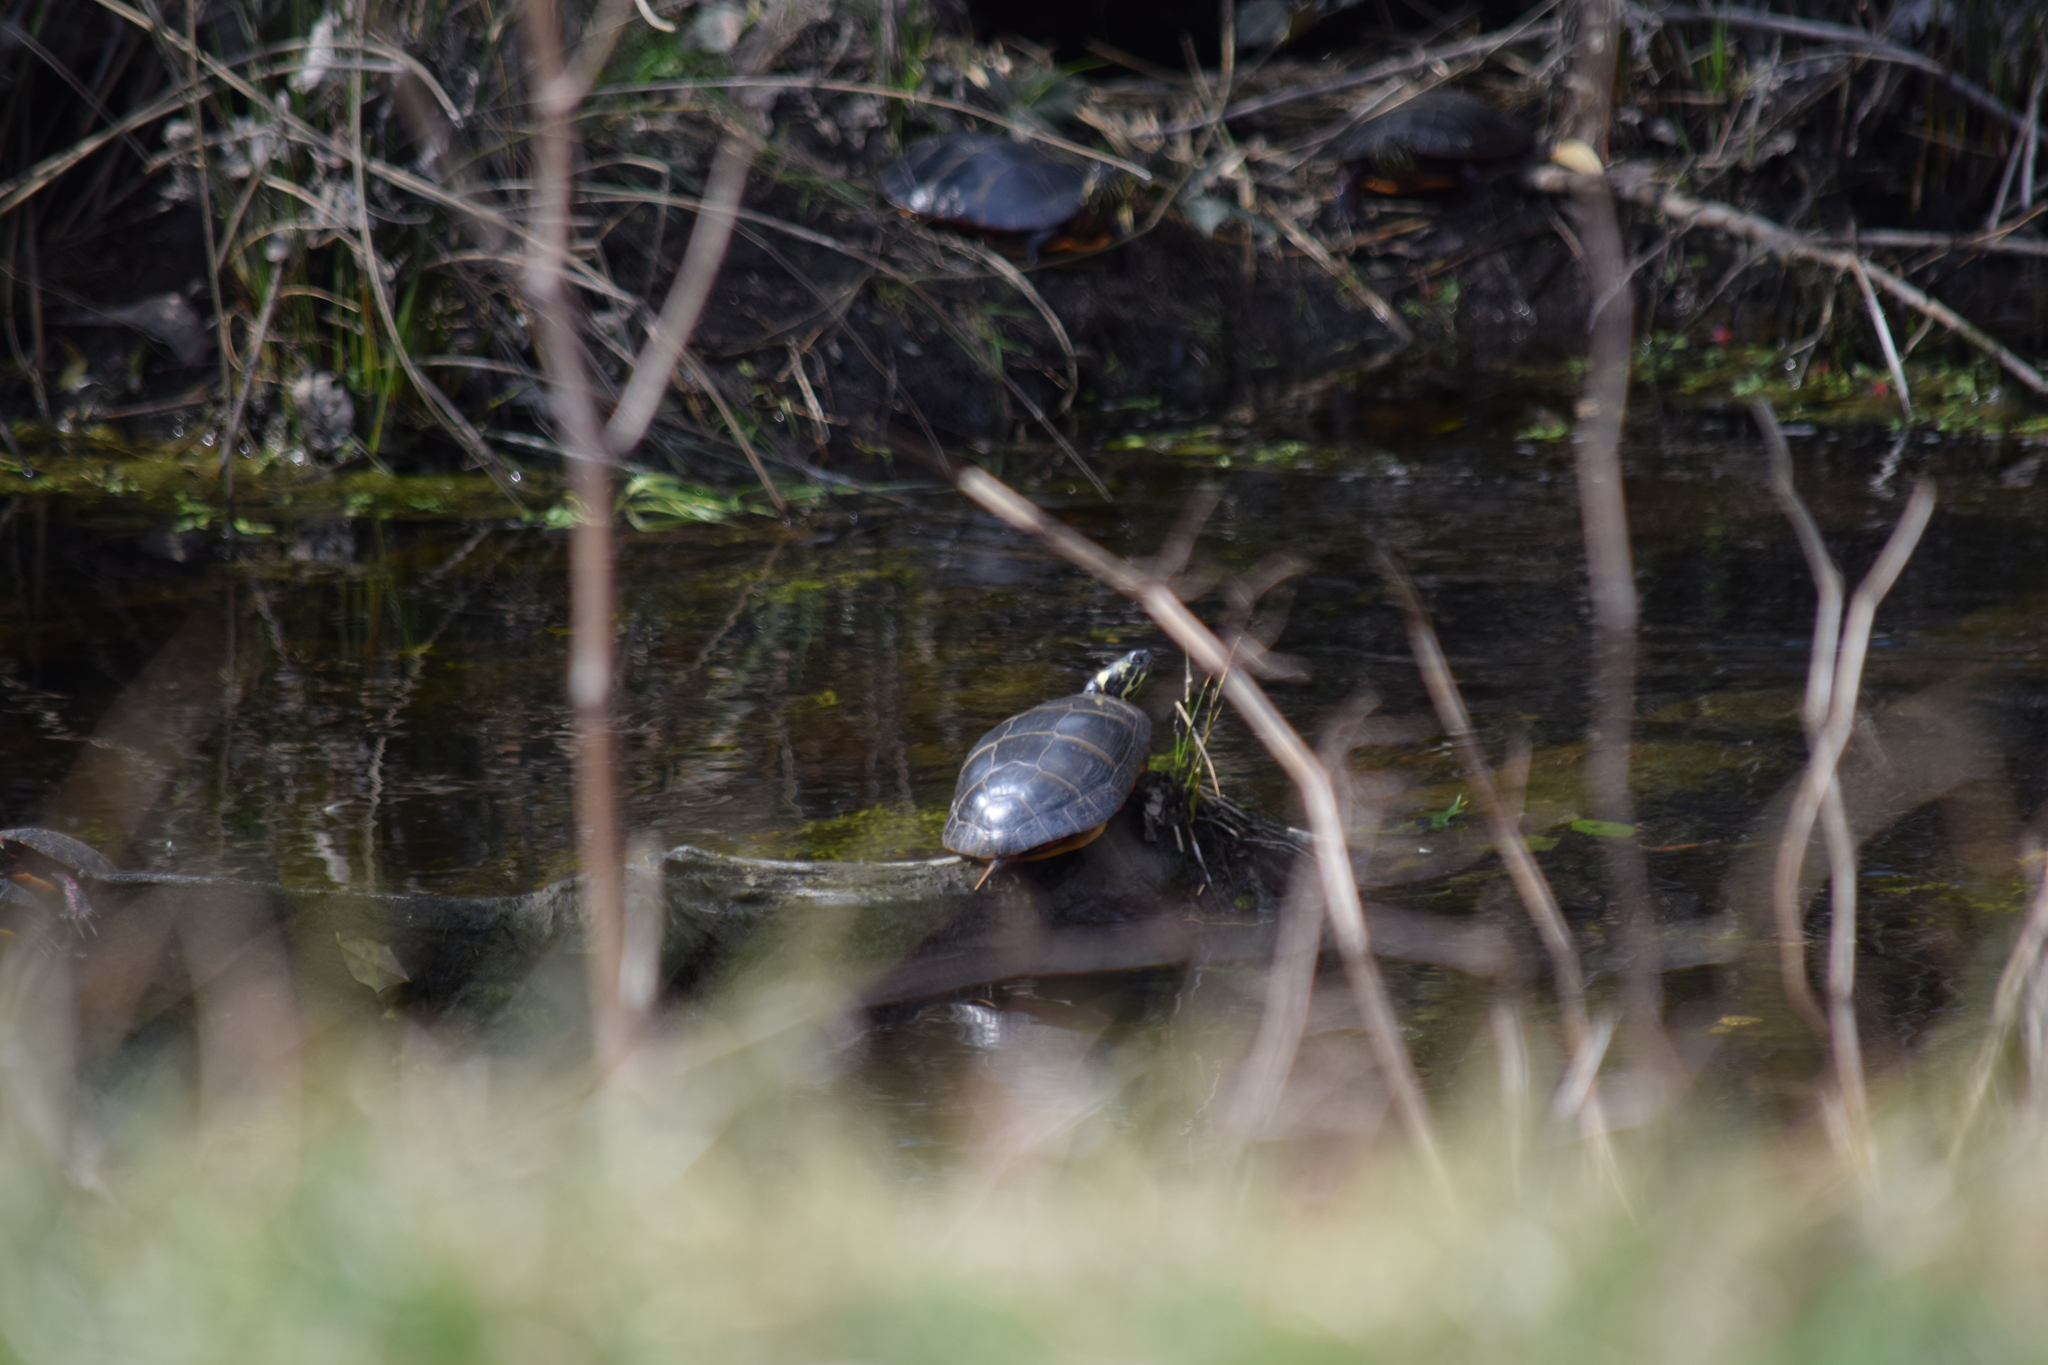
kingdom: Animalia
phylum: Chordata
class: Testudines
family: Emydidae
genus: Chrysemys
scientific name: Chrysemys picta
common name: Painted turtle
